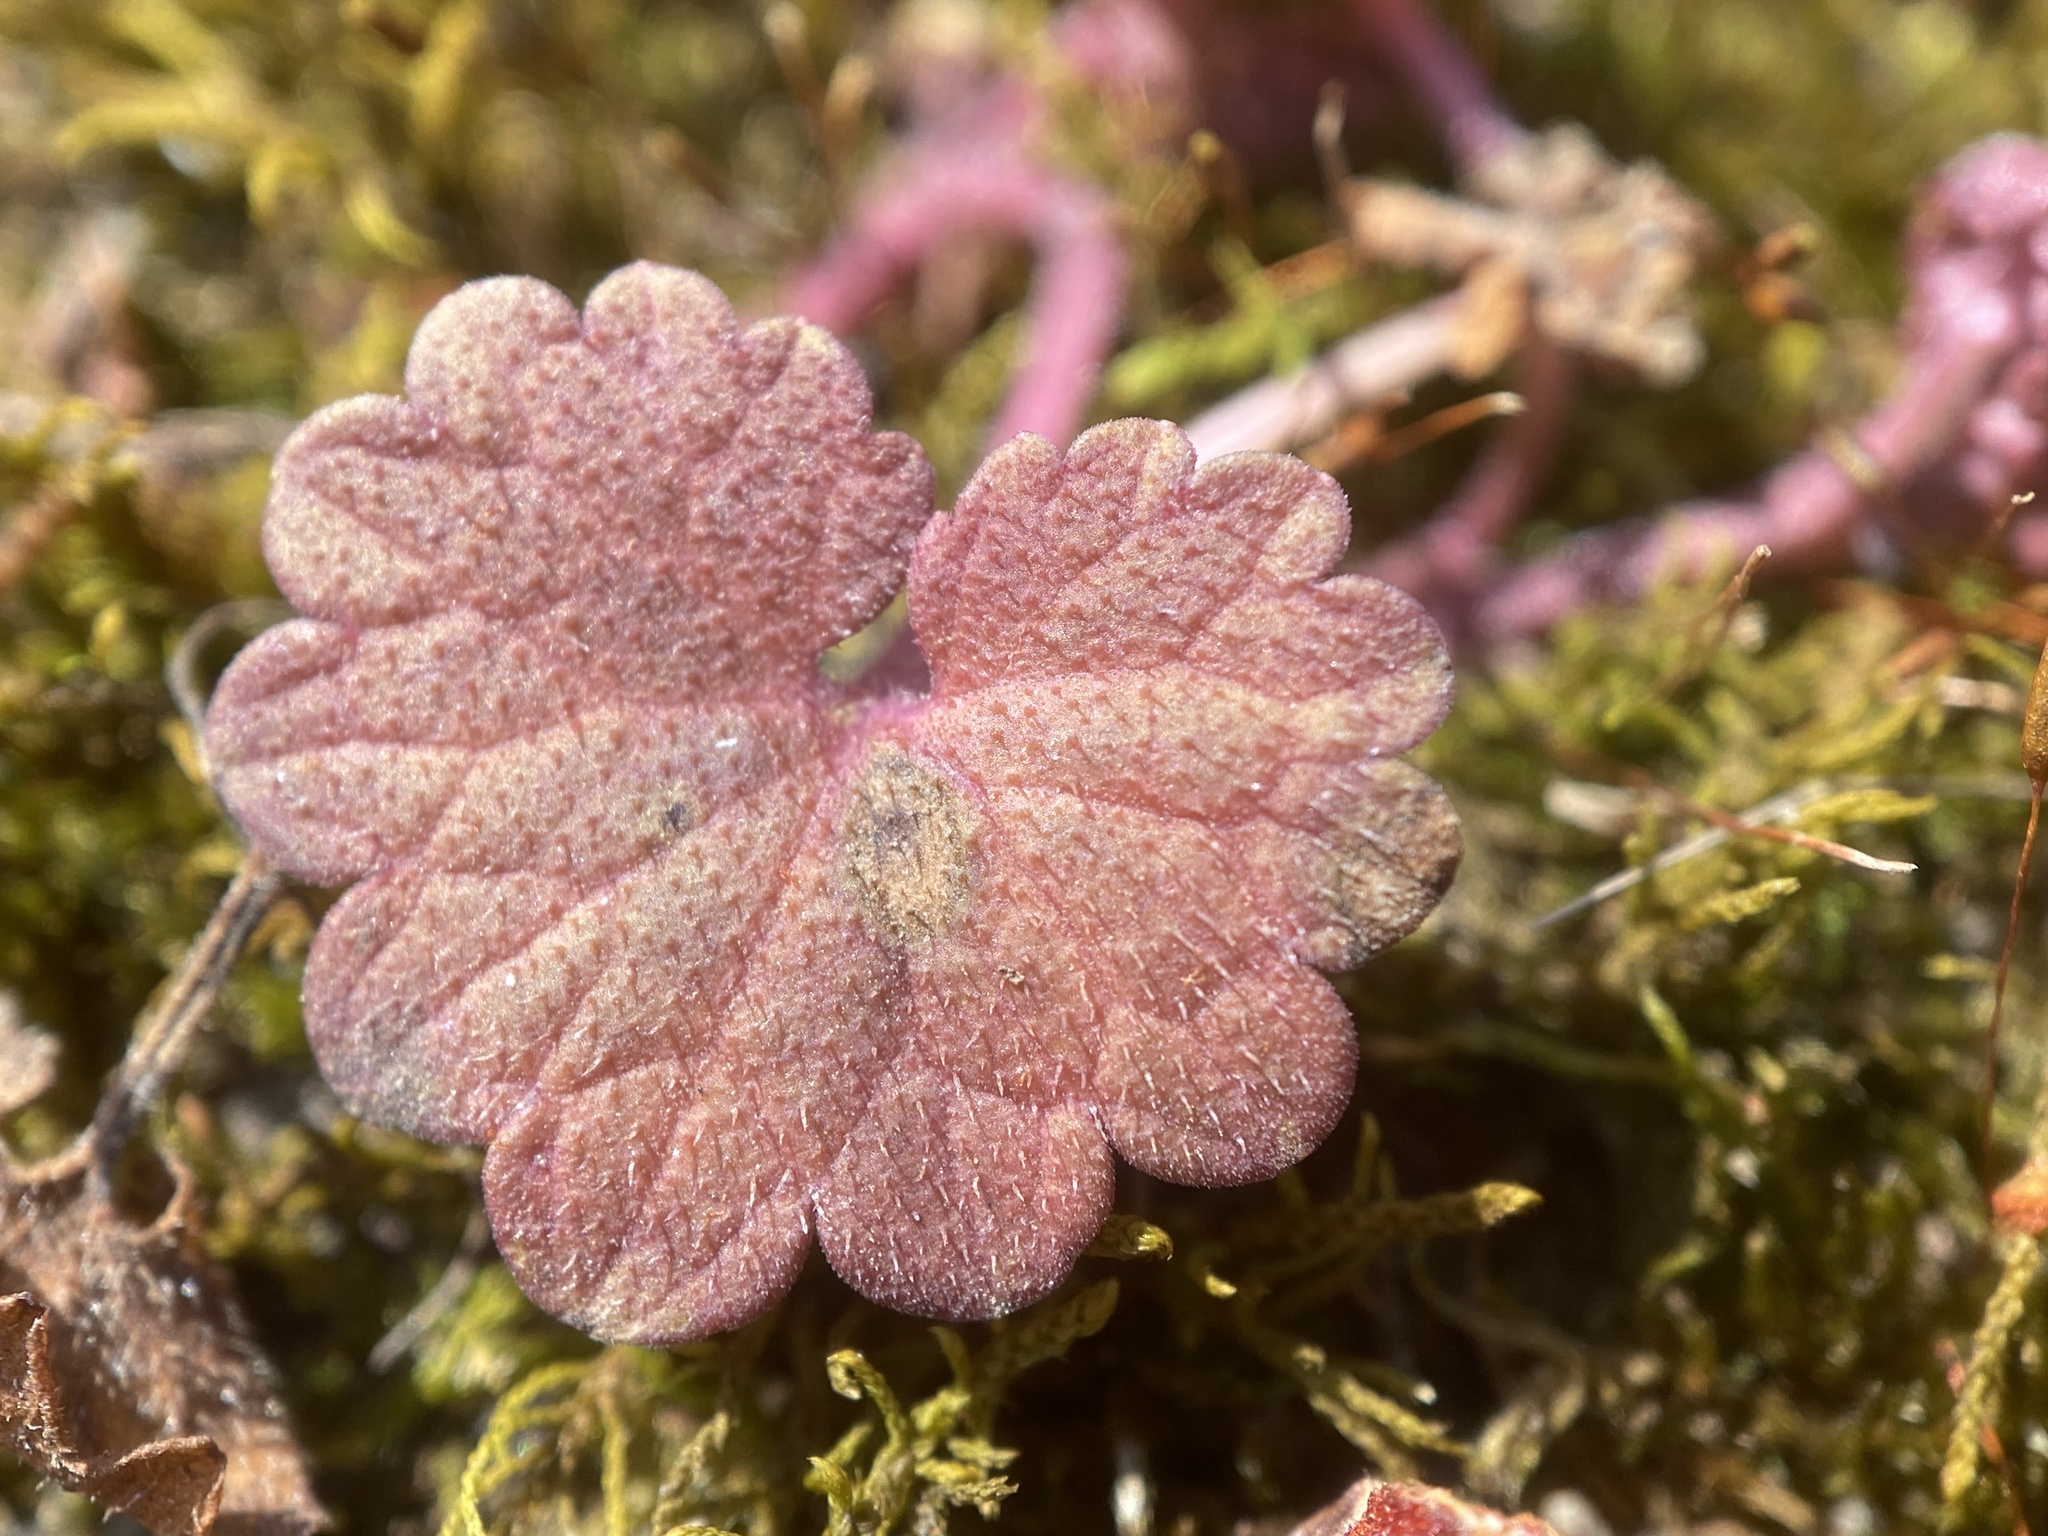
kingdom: Plantae
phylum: Tracheophyta
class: Magnoliopsida
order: Lamiales
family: Lamiaceae
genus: Glechoma
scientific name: Glechoma hederacea
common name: Ground ivy
